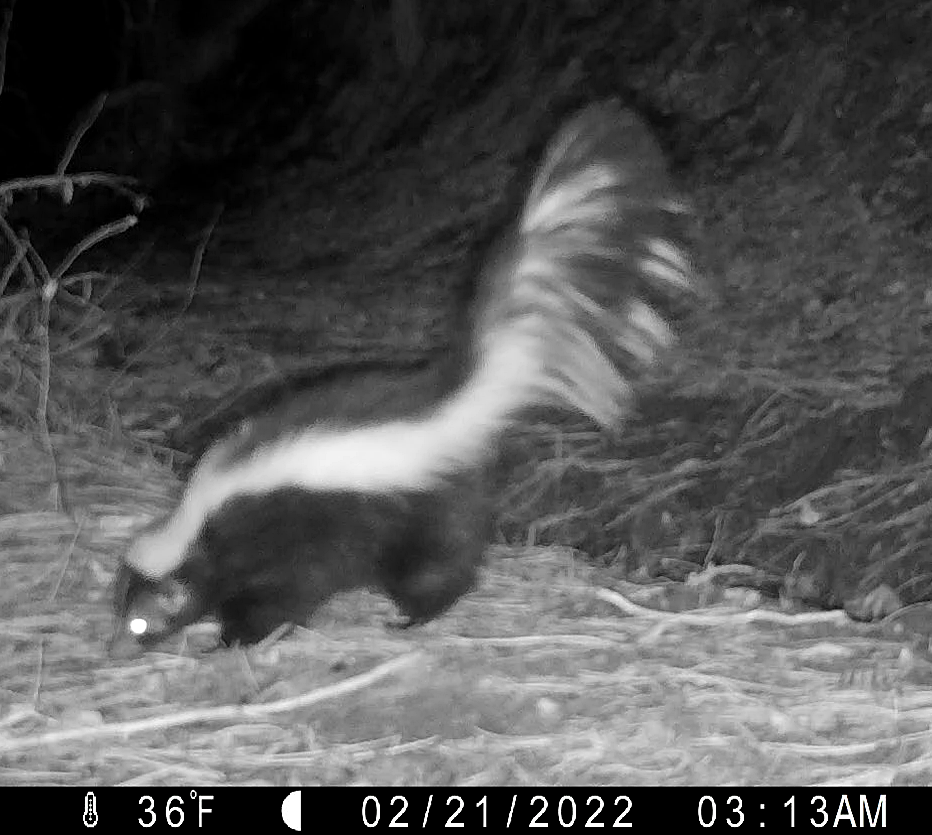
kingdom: Animalia
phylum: Chordata
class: Mammalia
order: Carnivora
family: Mephitidae
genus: Mephitis
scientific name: Mephitis mephitis
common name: Striped skunk
